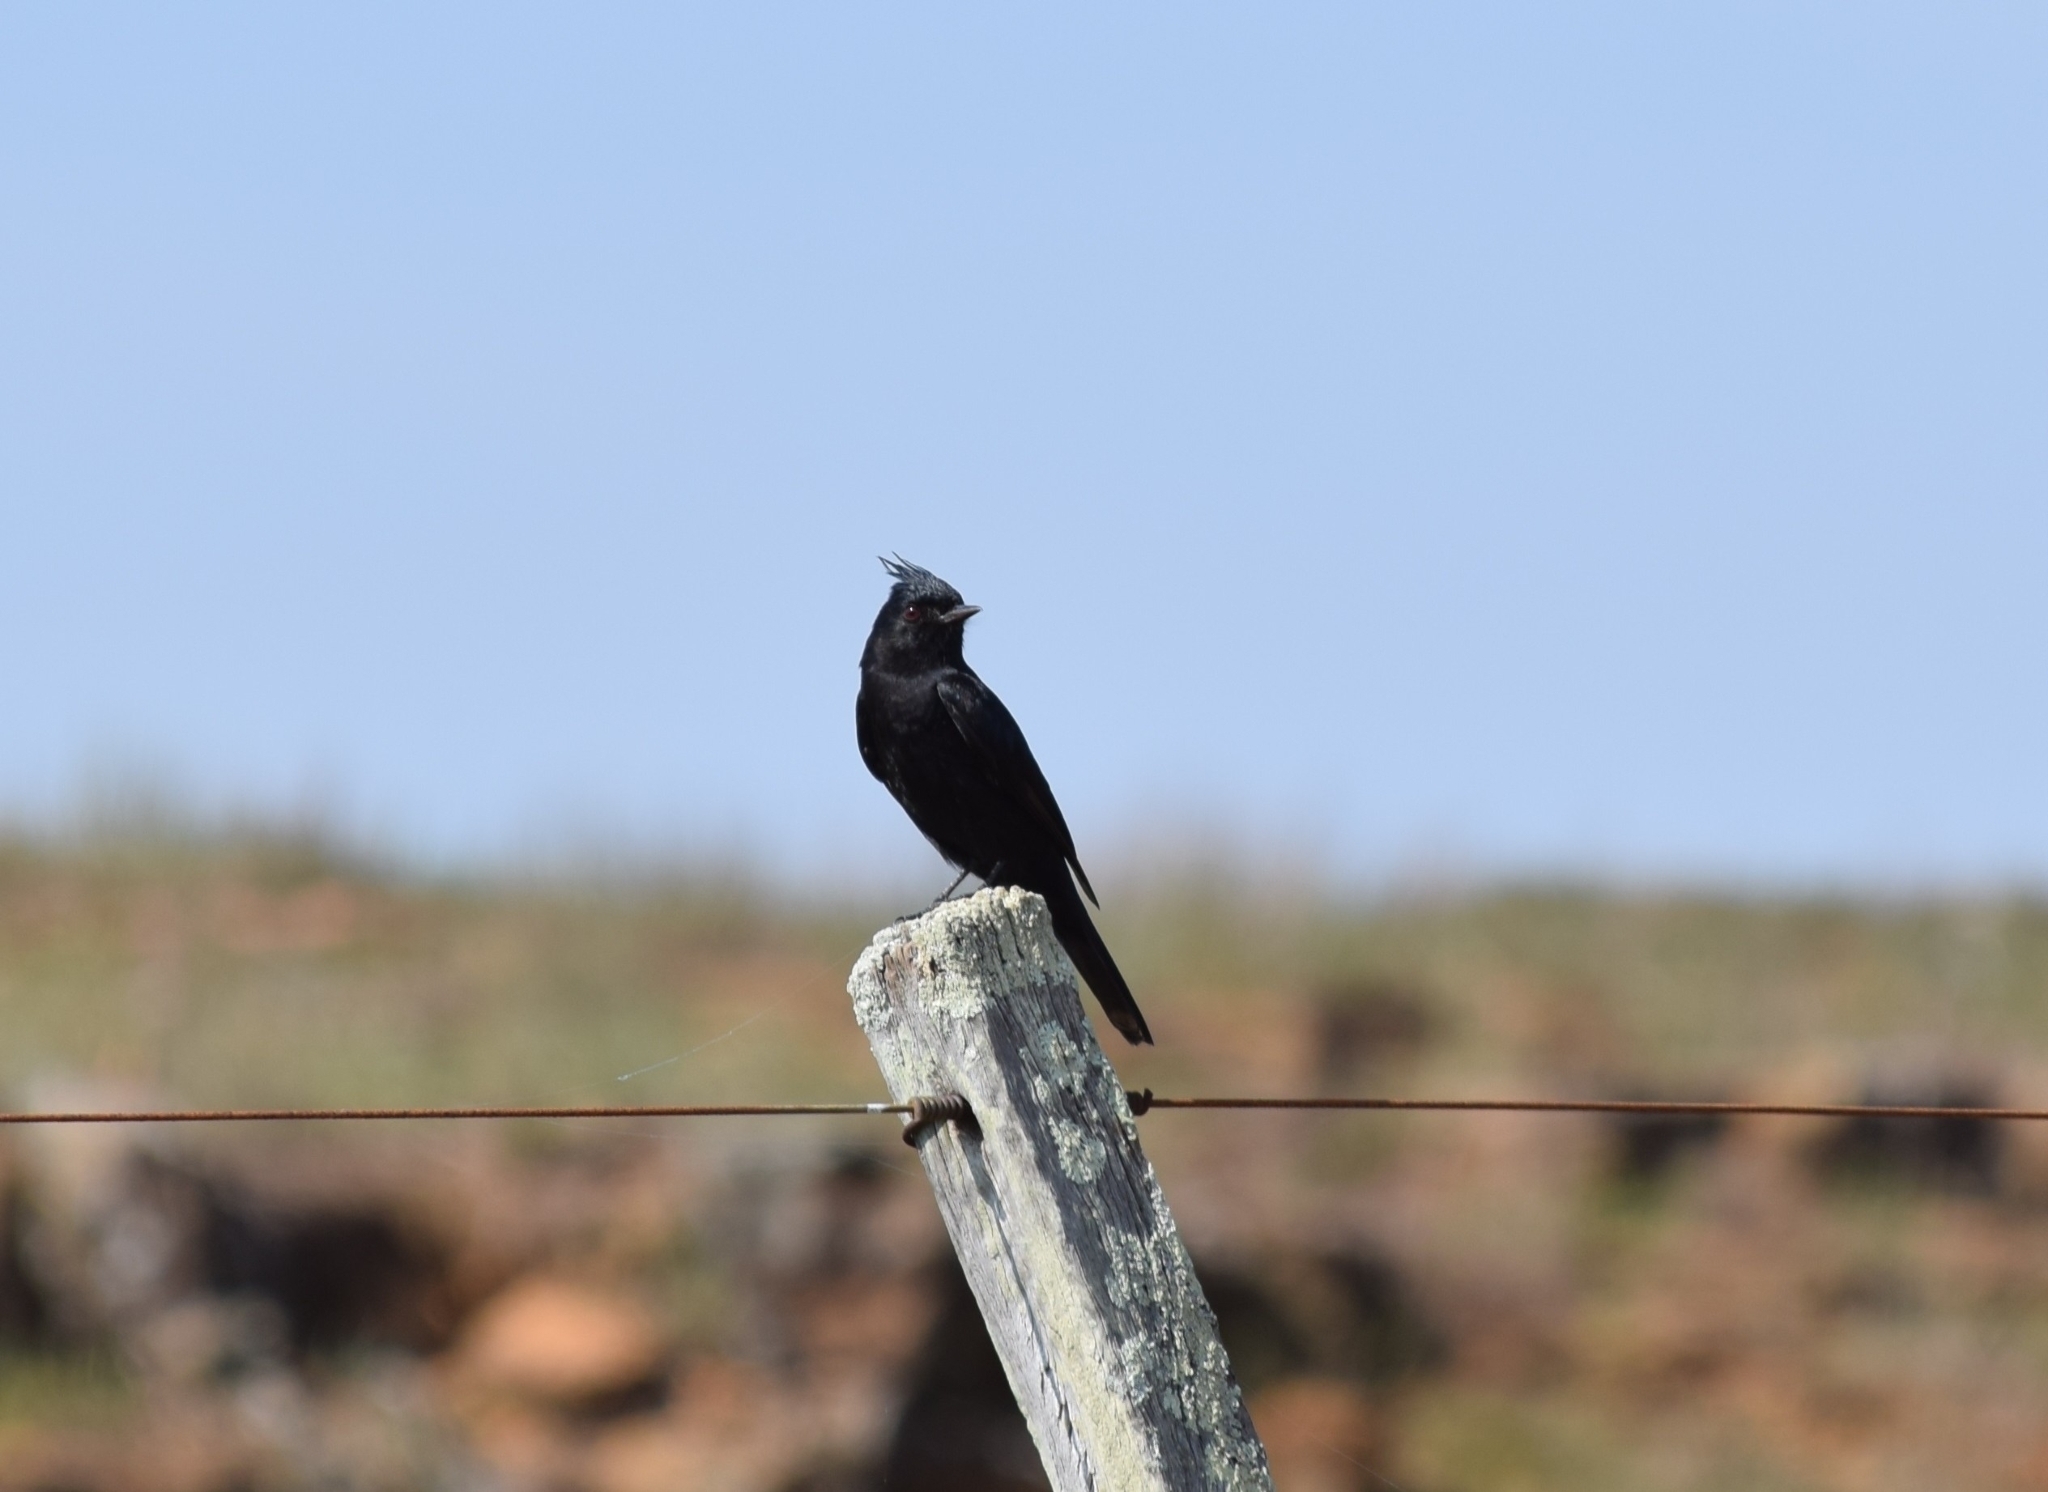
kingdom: Animalia
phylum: Chordata
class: Aves
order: Passeriformes
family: Tyrannidae
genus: Knipolegus
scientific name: Knipolegus lophotes
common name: Crested black tyrant
